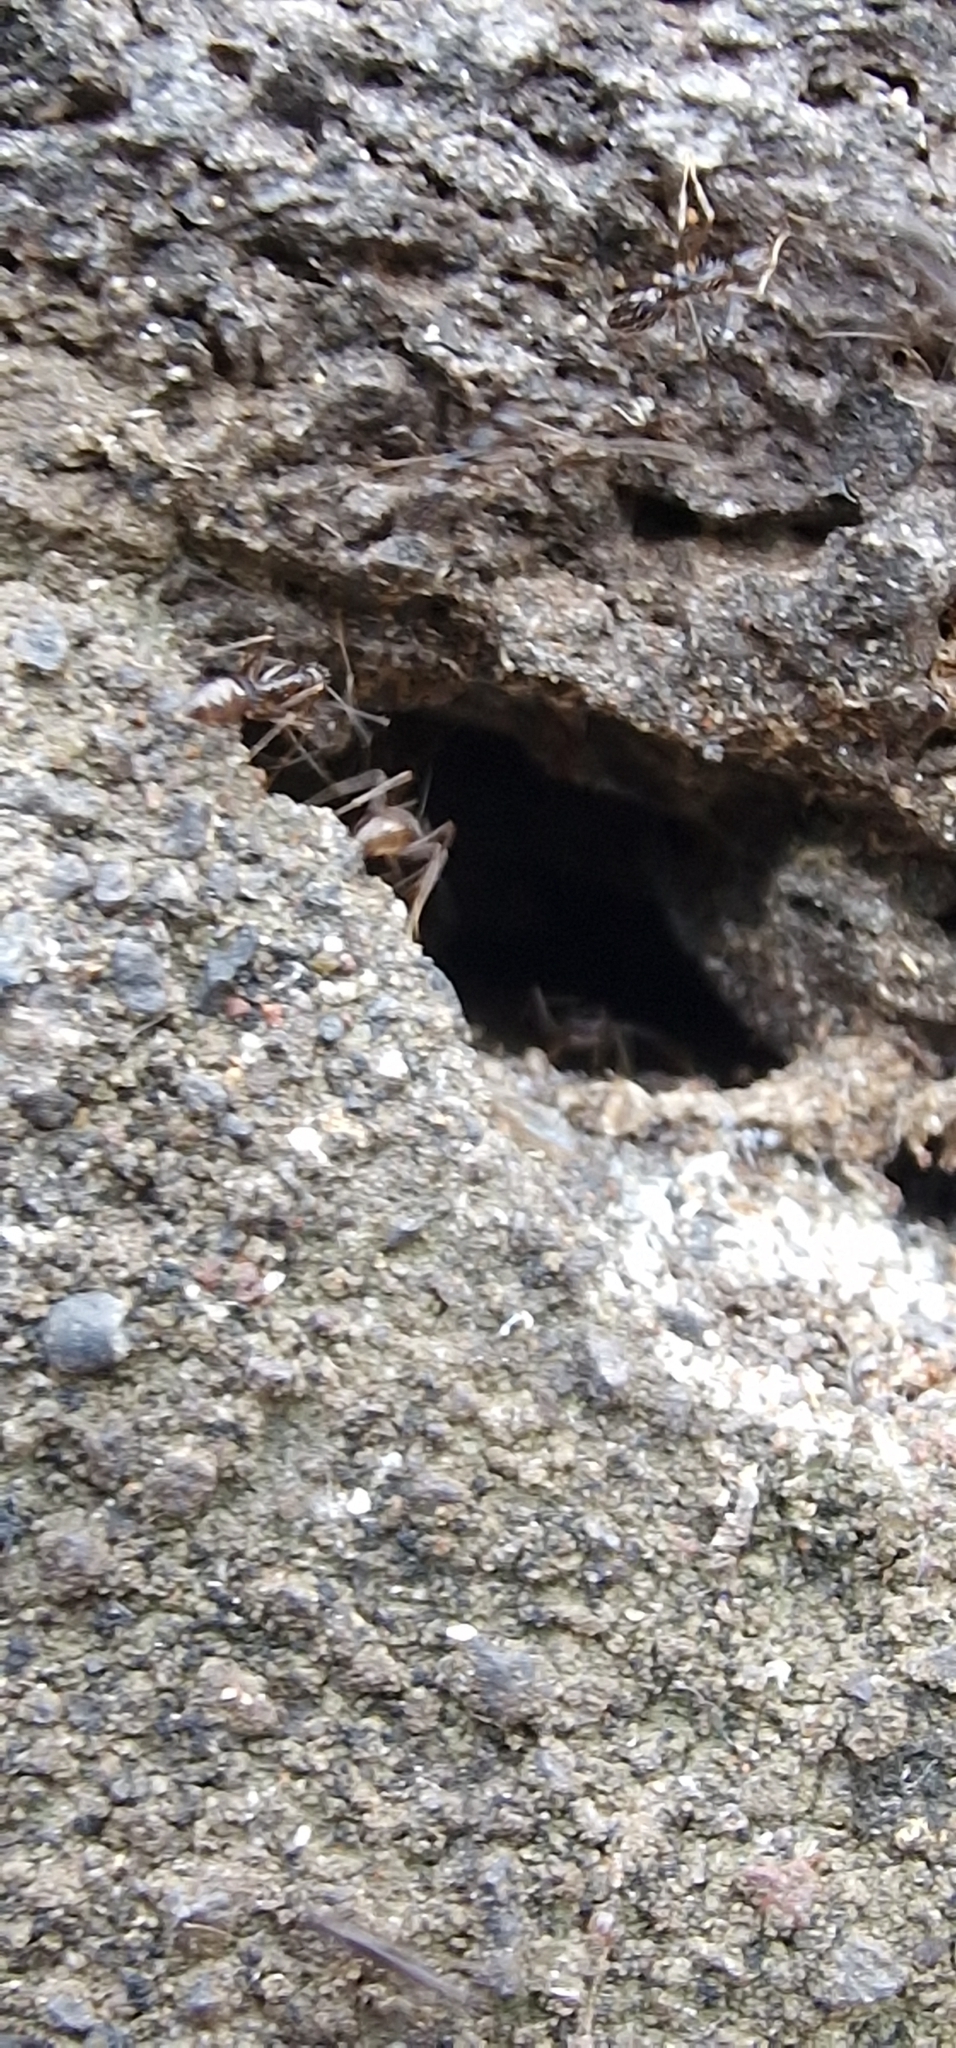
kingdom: Animalia
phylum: Arthropoda
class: Insecta
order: Hymenoptera
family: Formicidae
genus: Paratrechina
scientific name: Paratrechina longicornis
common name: Longhorned crazy ant
